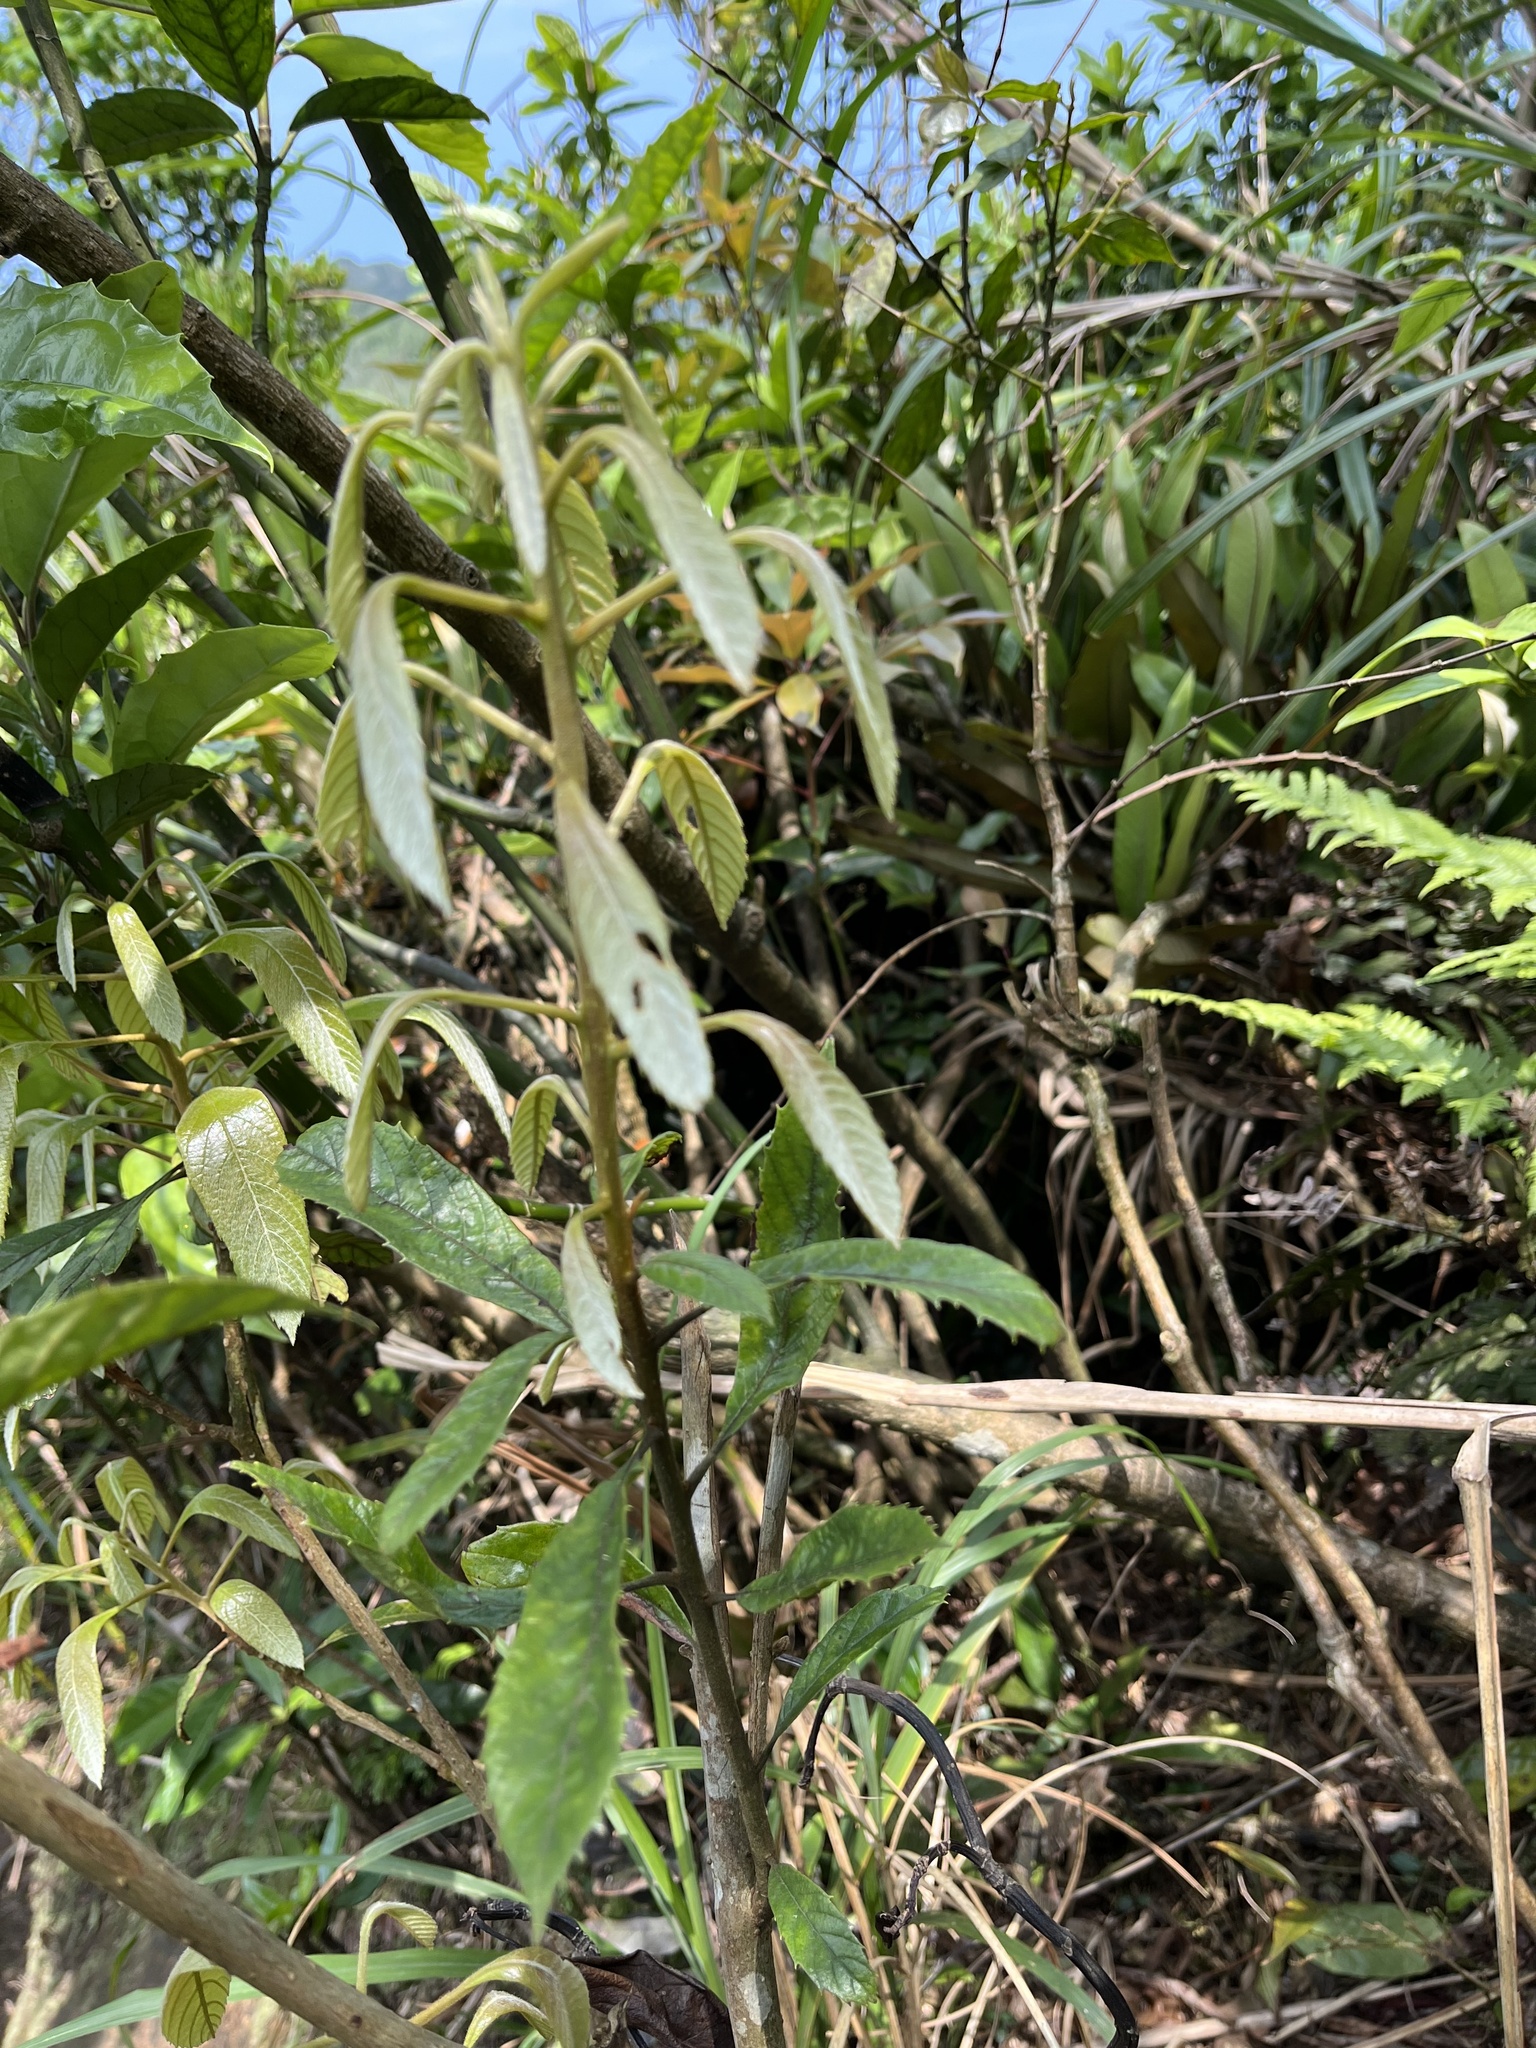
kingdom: Plantae
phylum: Tracheophyta
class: Magnoliopsida
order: Proteales
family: Sabiaceae
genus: Meliosma
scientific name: Meliosma rigida
